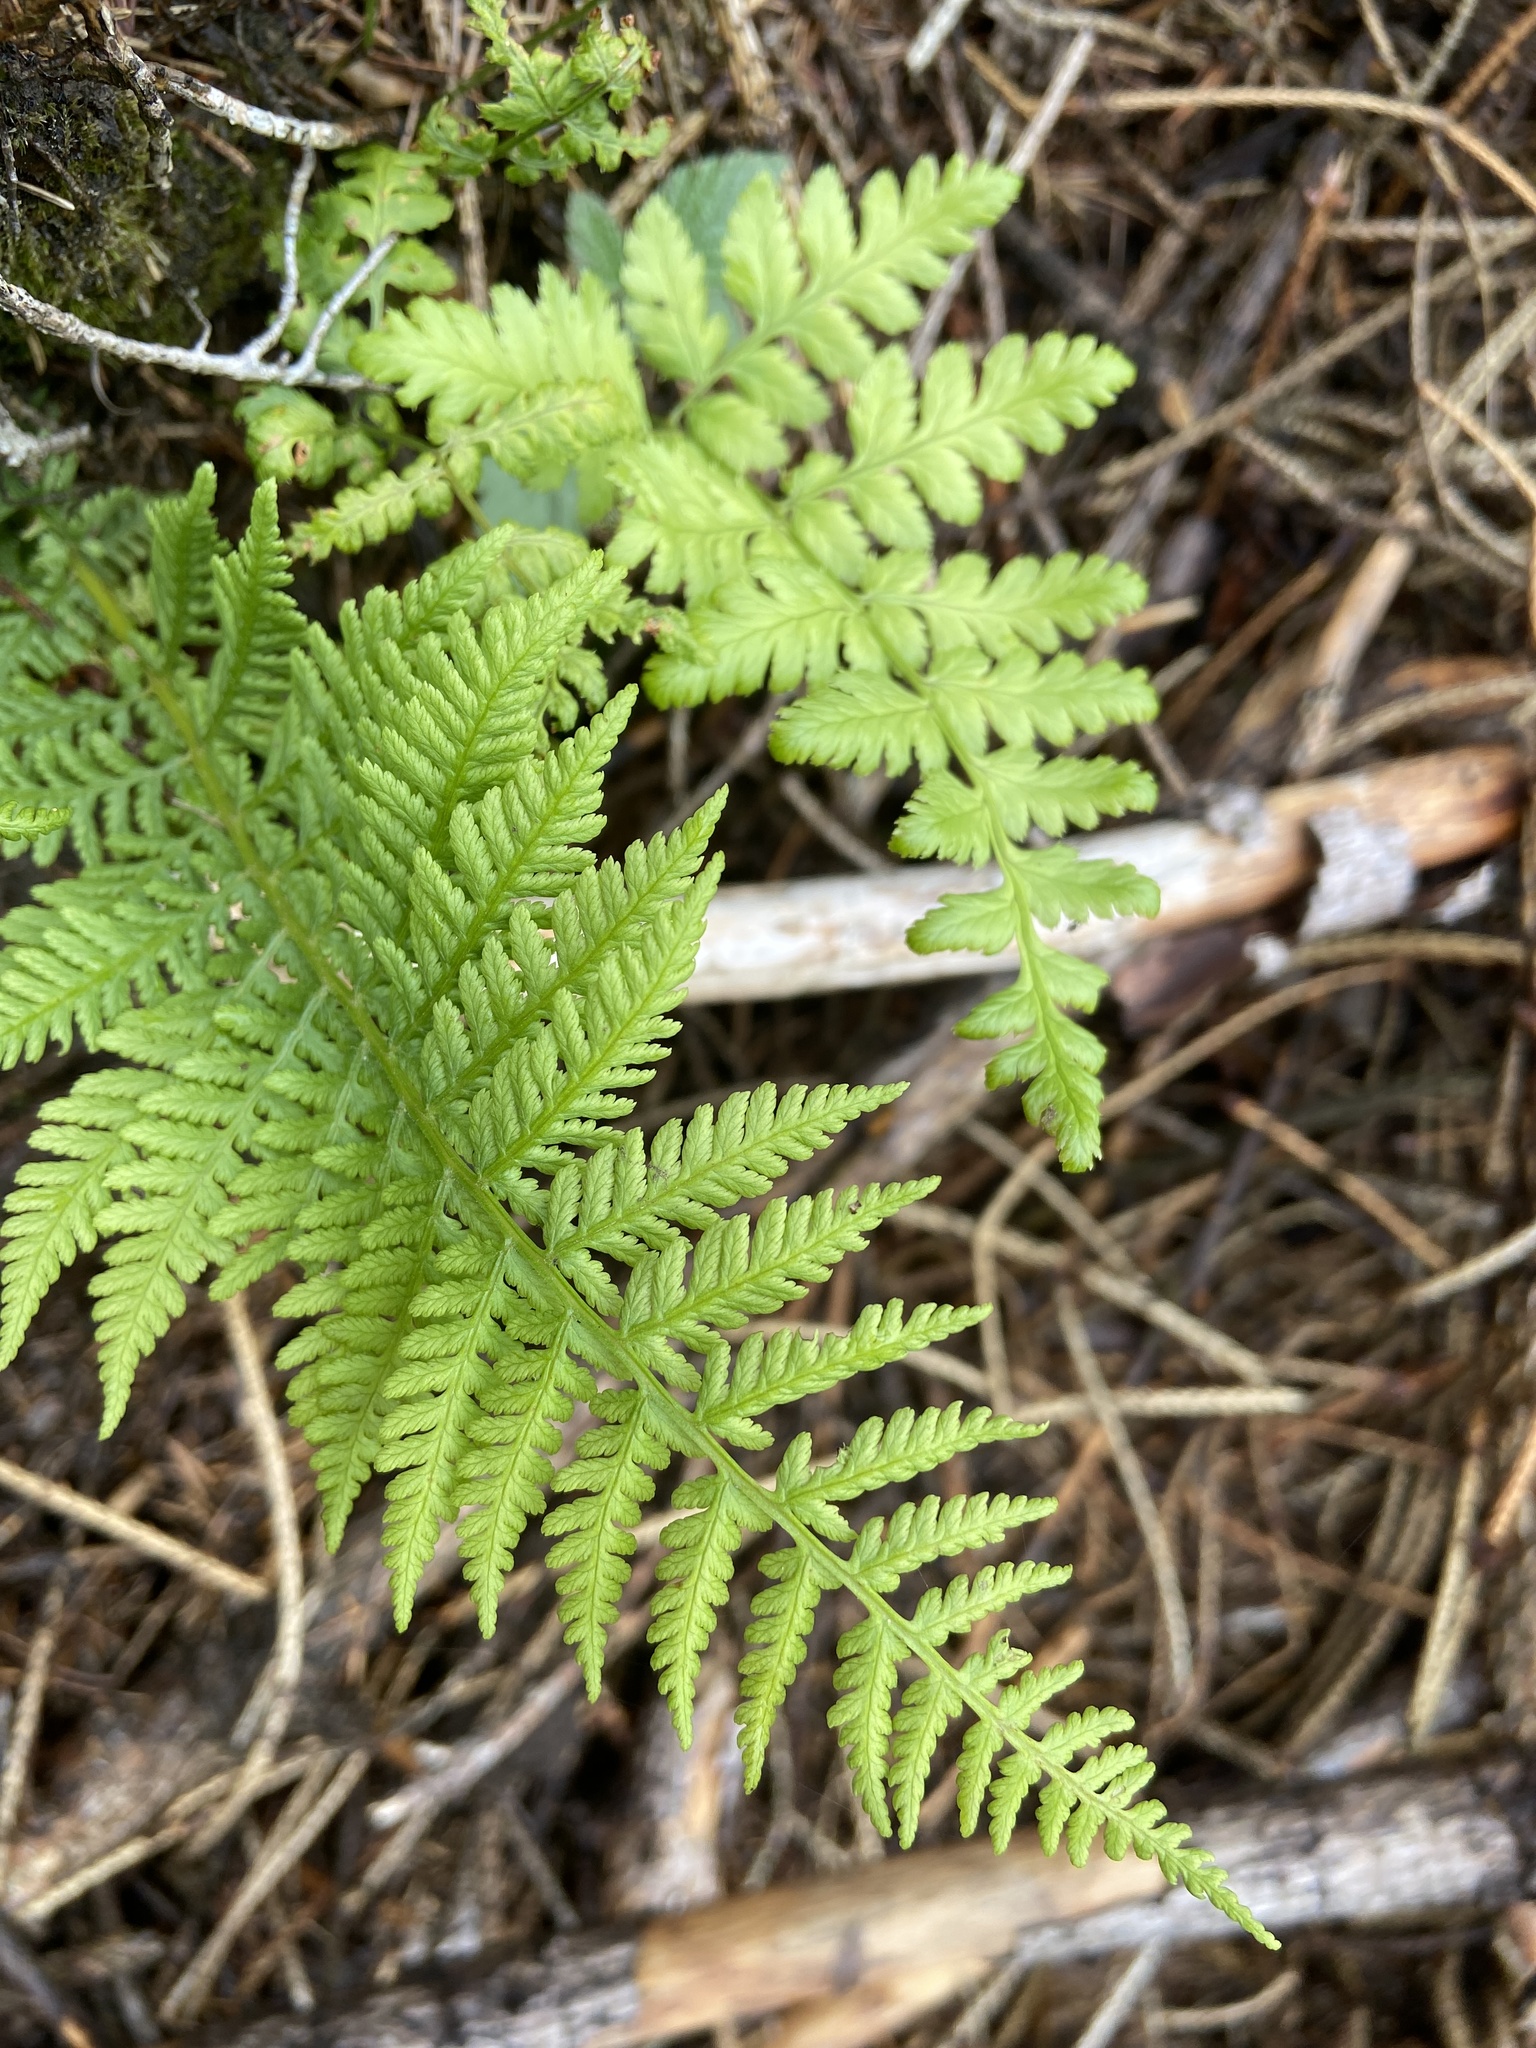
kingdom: Plantae
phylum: Tracheophyta
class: Polypodiopsida
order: Polypodiales
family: Athyriaceae
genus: Athyrium
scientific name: Athyrium filix-femina
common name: Lady fern
